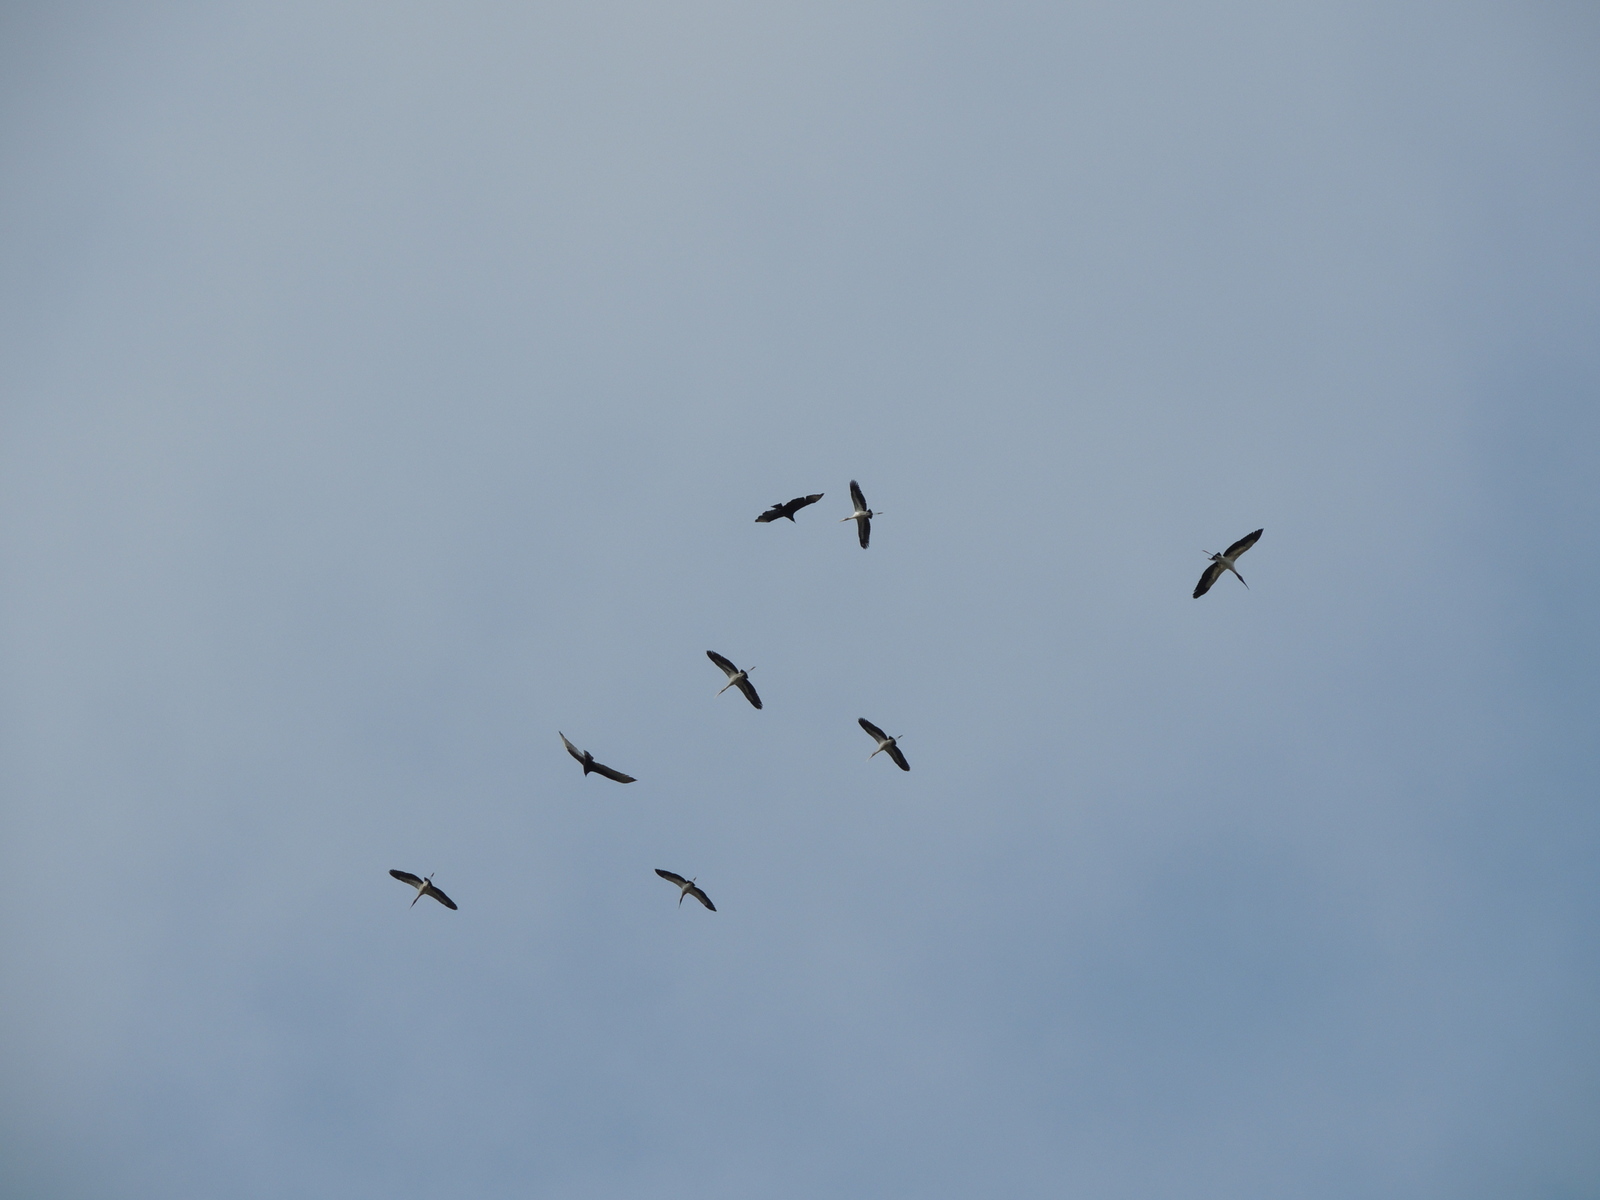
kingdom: Animalia
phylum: Chordata
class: Aves
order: Ciconiiformes
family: Ciconiidae
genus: Mycteria
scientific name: Mycteria americana
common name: Wood stork
